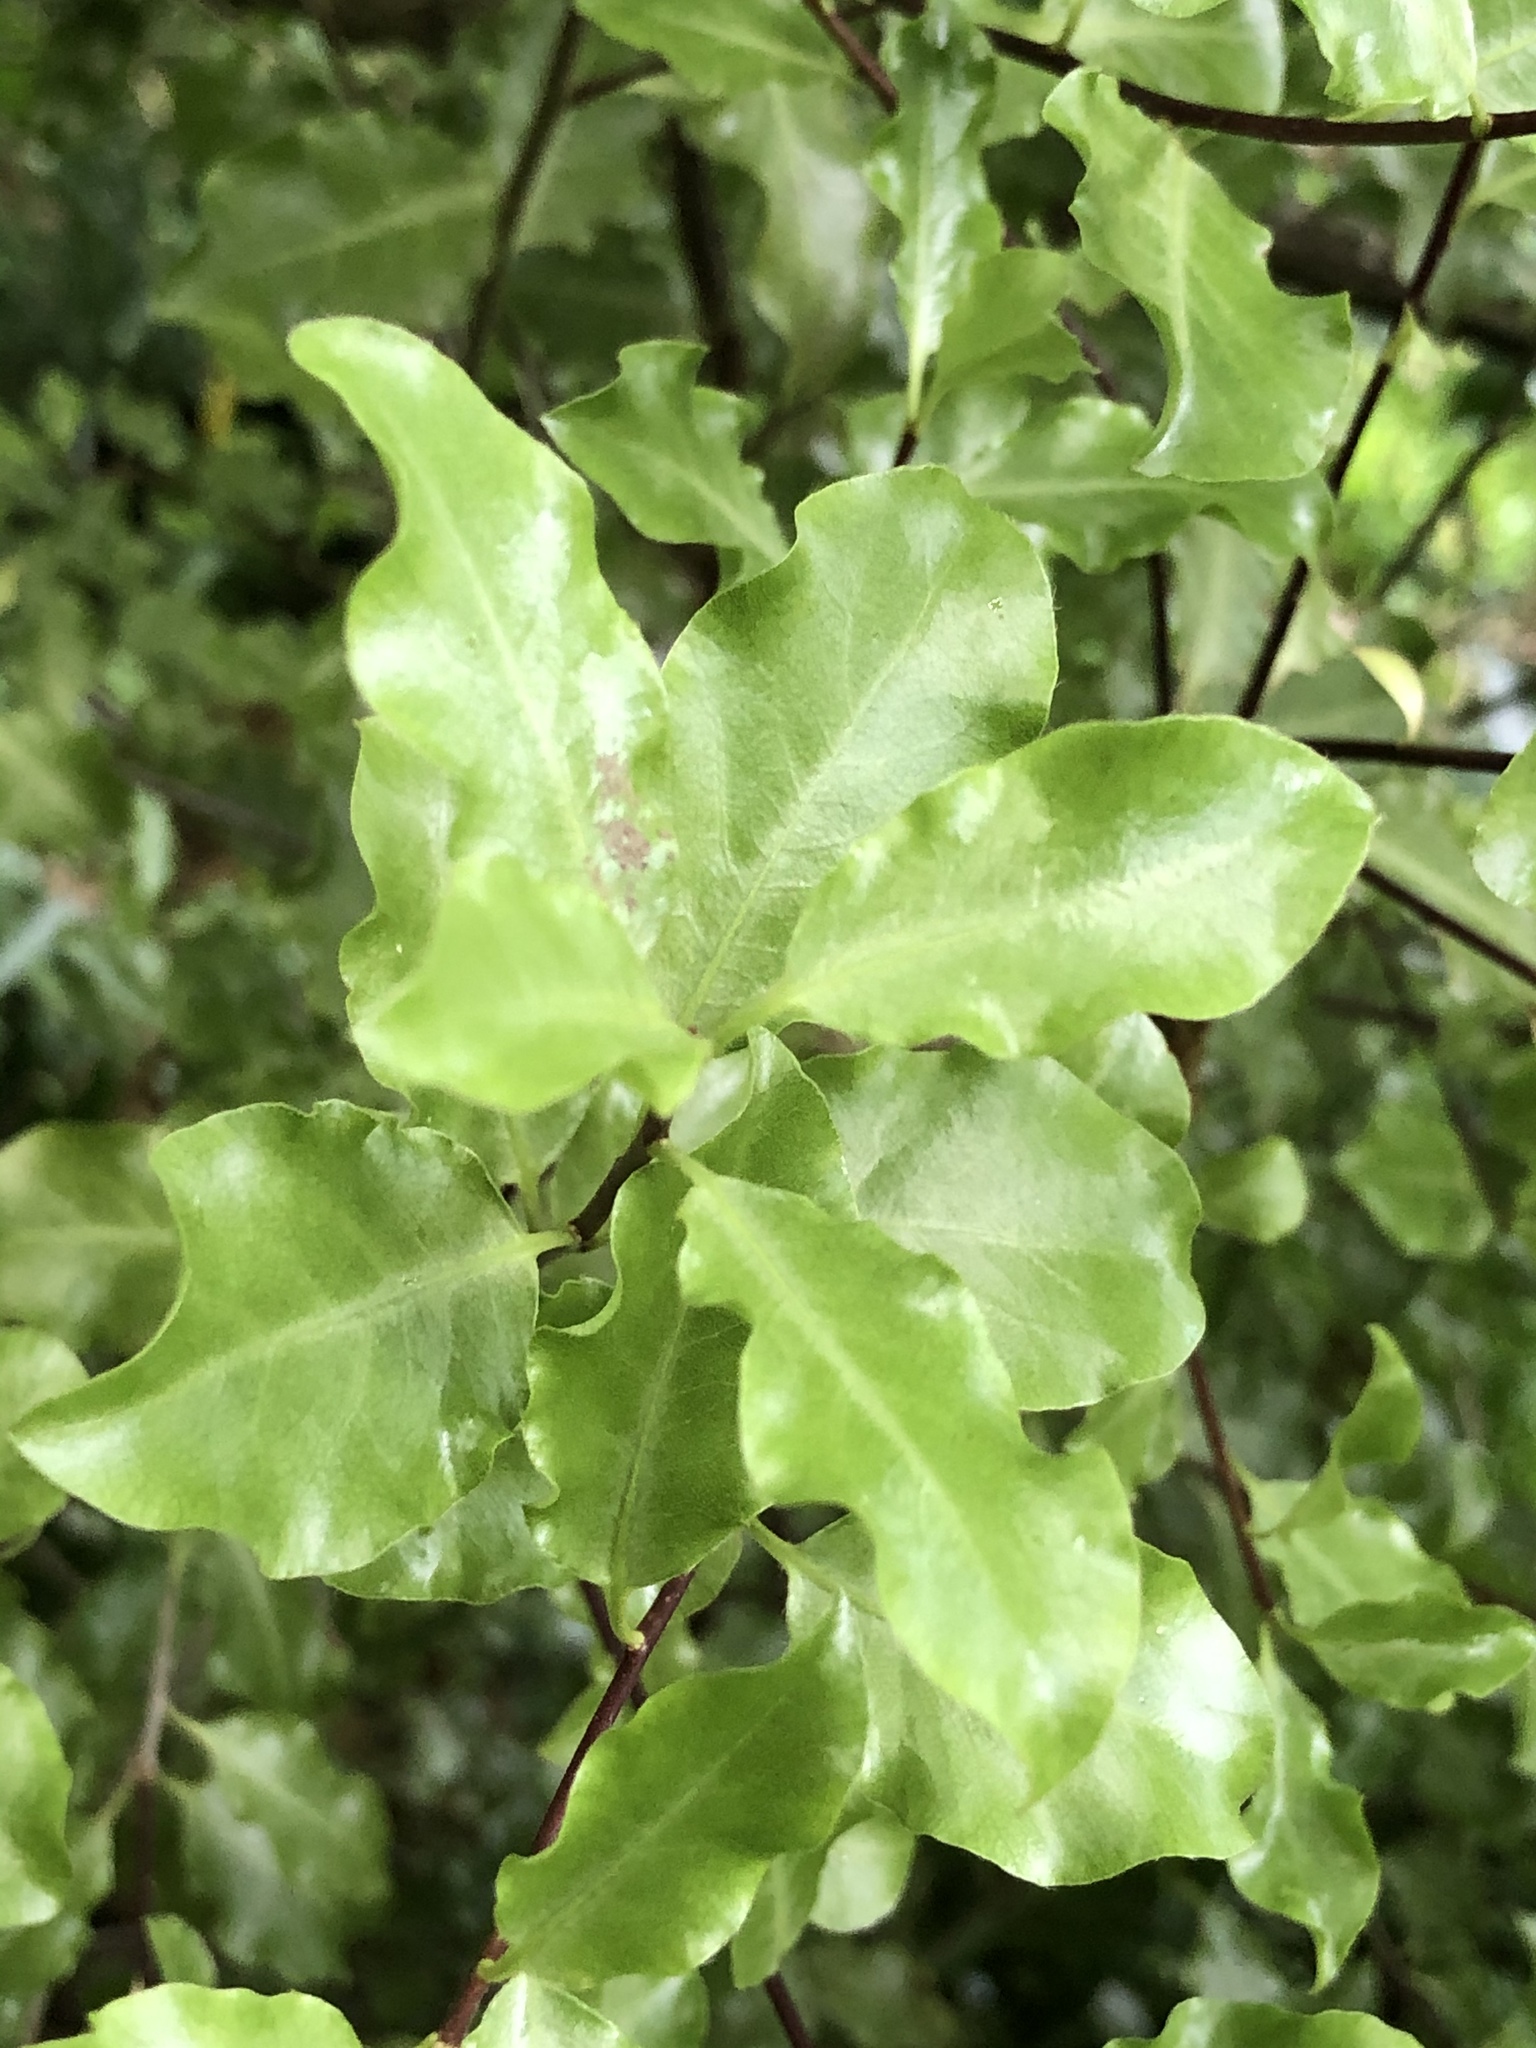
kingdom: Plantae
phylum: Tracheophyta
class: Magnoliopsida
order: Apiales
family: Pittosporaceae
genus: Pittosporum
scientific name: Pittosporum tenuifolium
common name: Kohuhu
